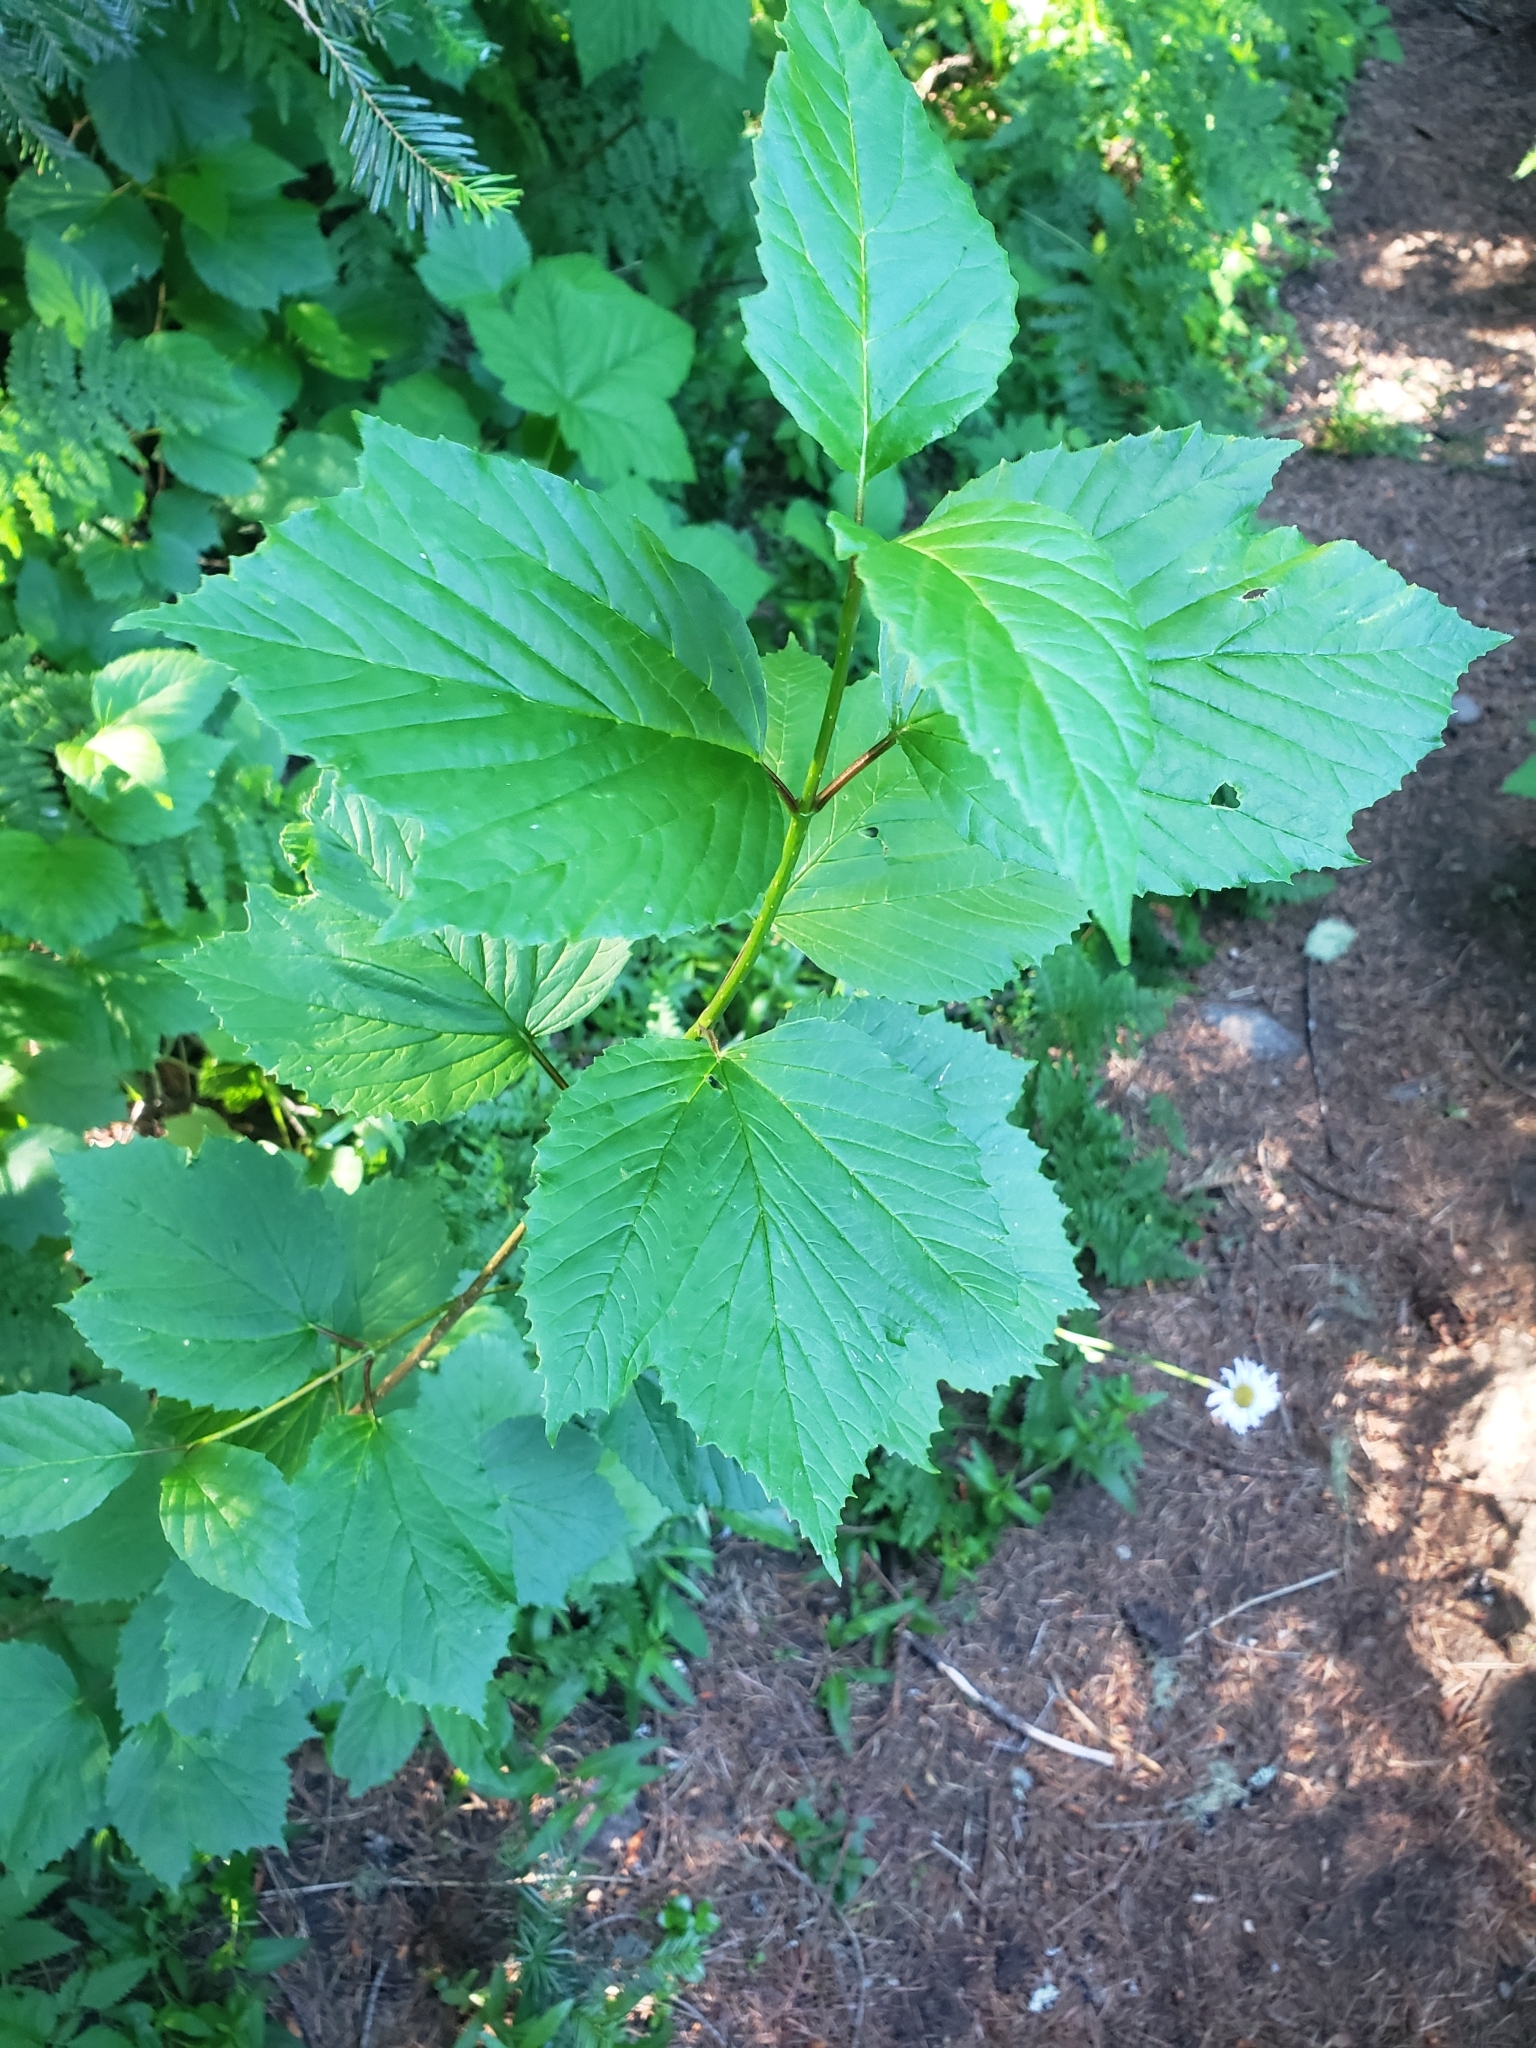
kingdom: Plantae
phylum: Tracheophyta
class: Magnoliopsida
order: Dipsacales
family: Viburnaceae
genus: Viburnum
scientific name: Viburnum edule
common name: Mooseberry
